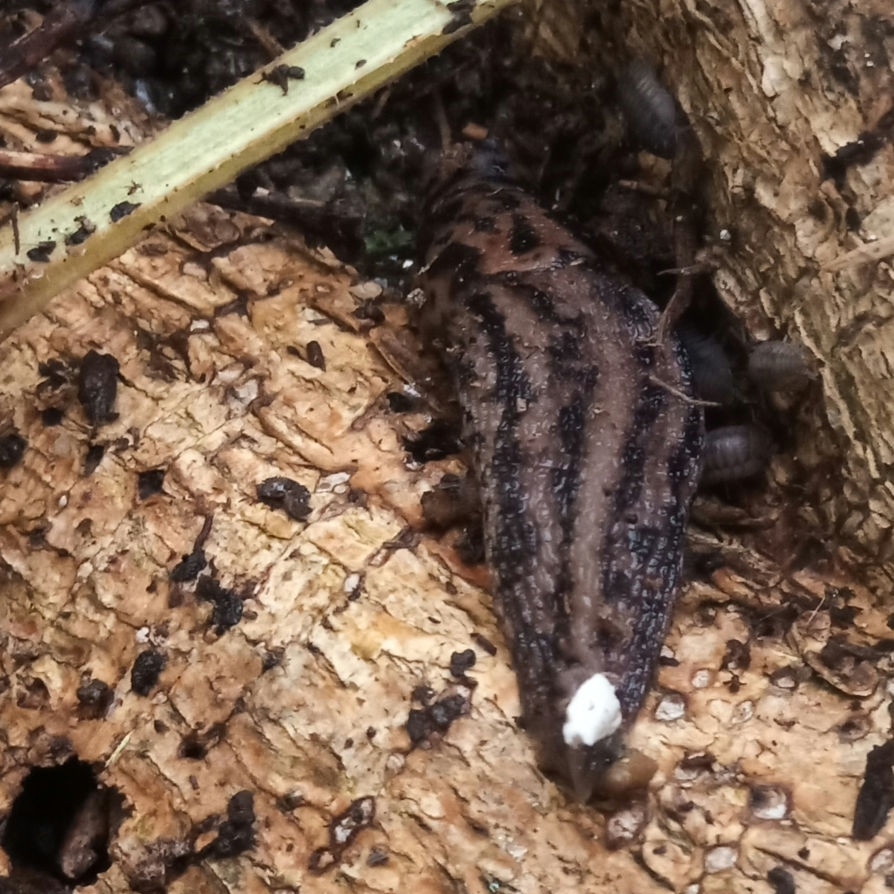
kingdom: Animalia
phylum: Mollusca
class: Gastropoda
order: Stylommatophora
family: Limacidae
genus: Limax
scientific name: Limax maximus
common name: Great grey slug
